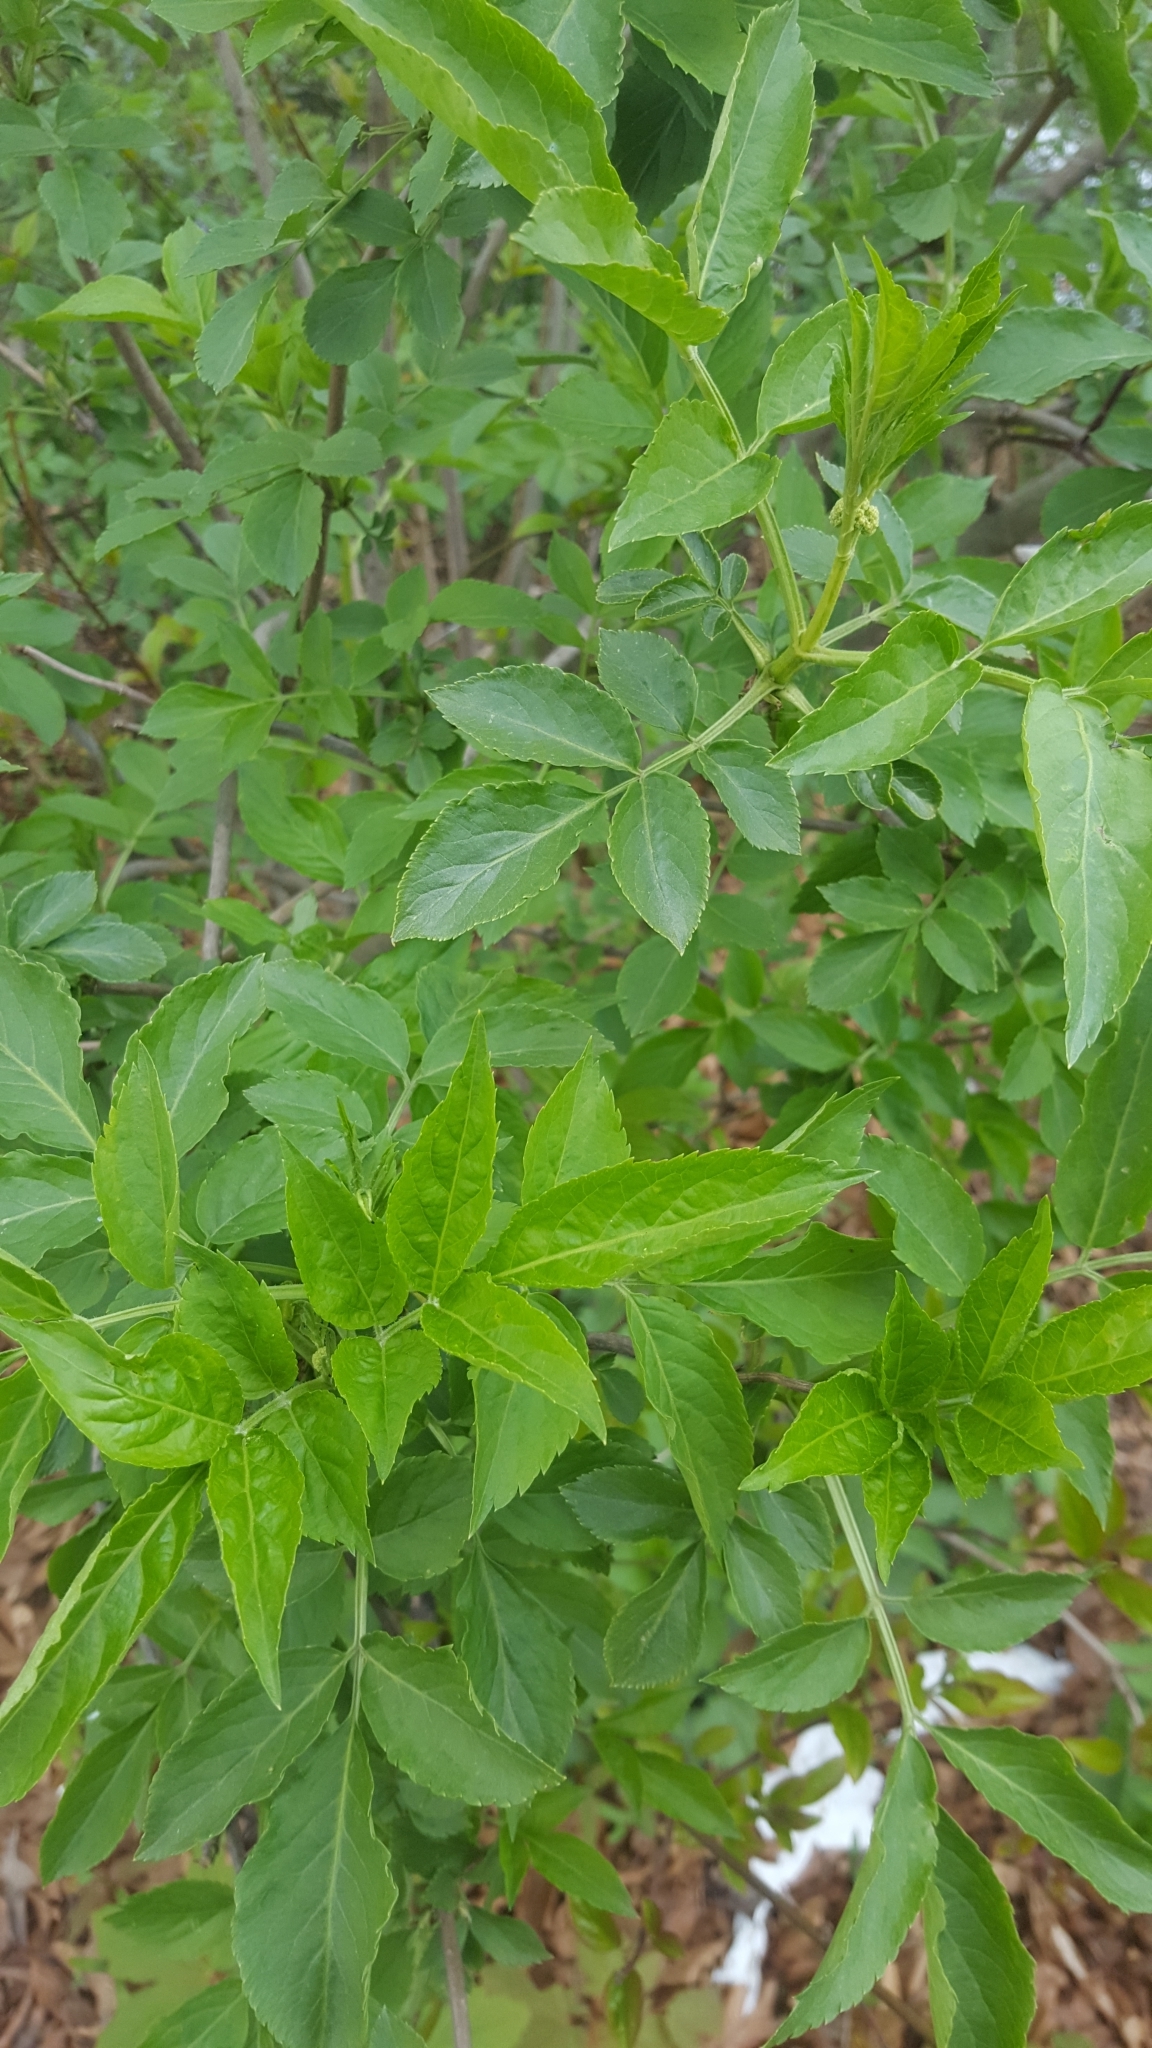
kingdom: Plantae
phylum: Tracheophyta
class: Magnoliopsida
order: Dipsacales
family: Viburnaceae
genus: Sambucus
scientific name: Sambucus nigra
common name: Elder
